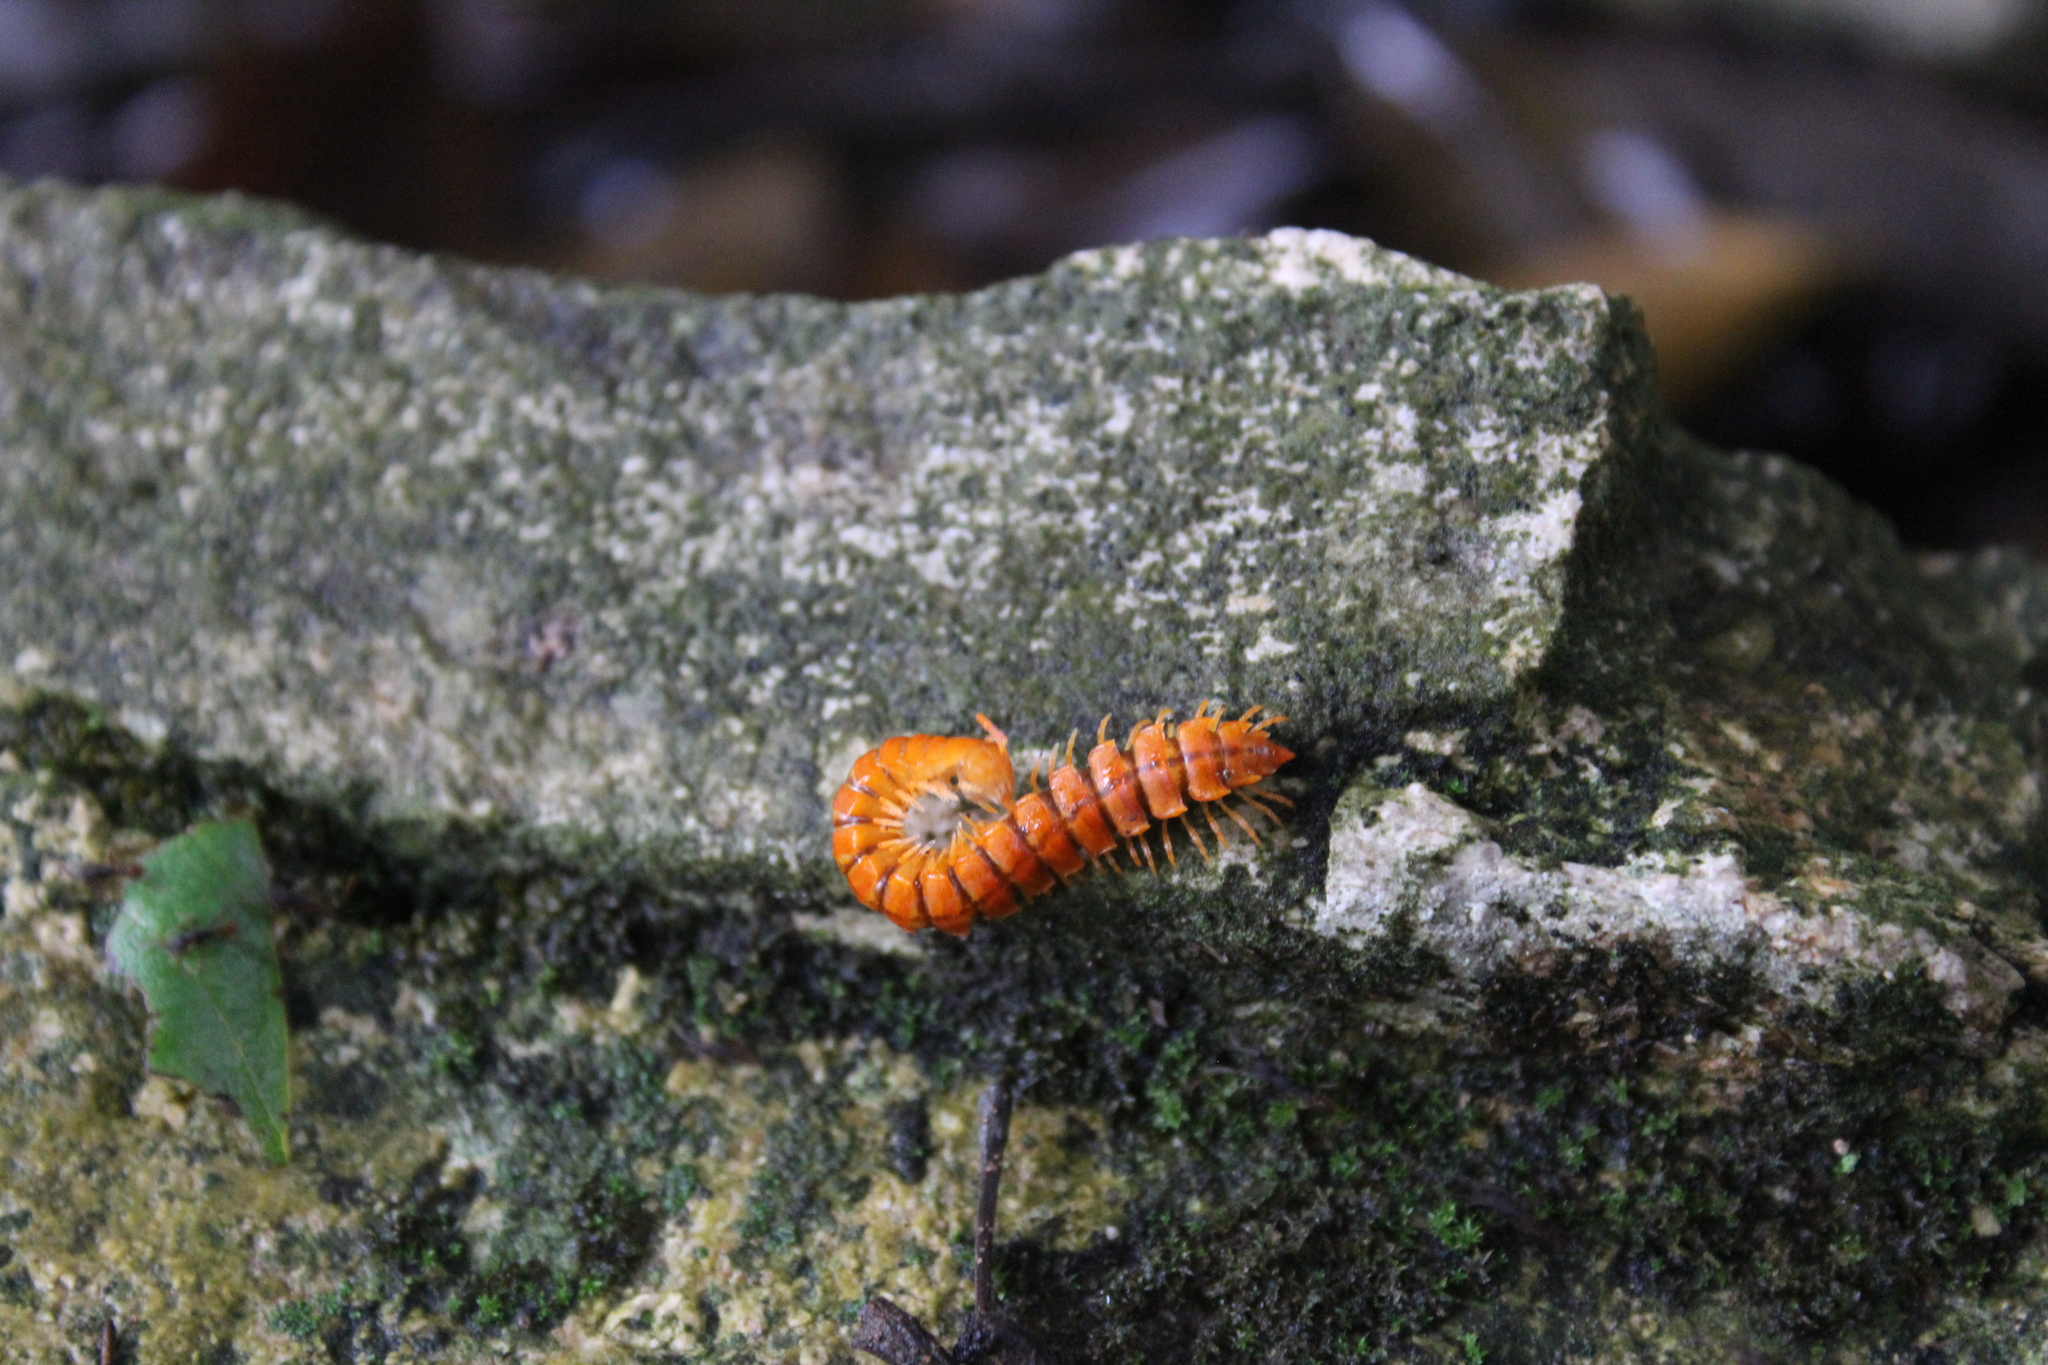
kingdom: Animalia
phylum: Arthropoda
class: Diplopoda
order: Polydesmida
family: Rhachodesmidae
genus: Aceratophallus
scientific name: Aceratophallus maya
